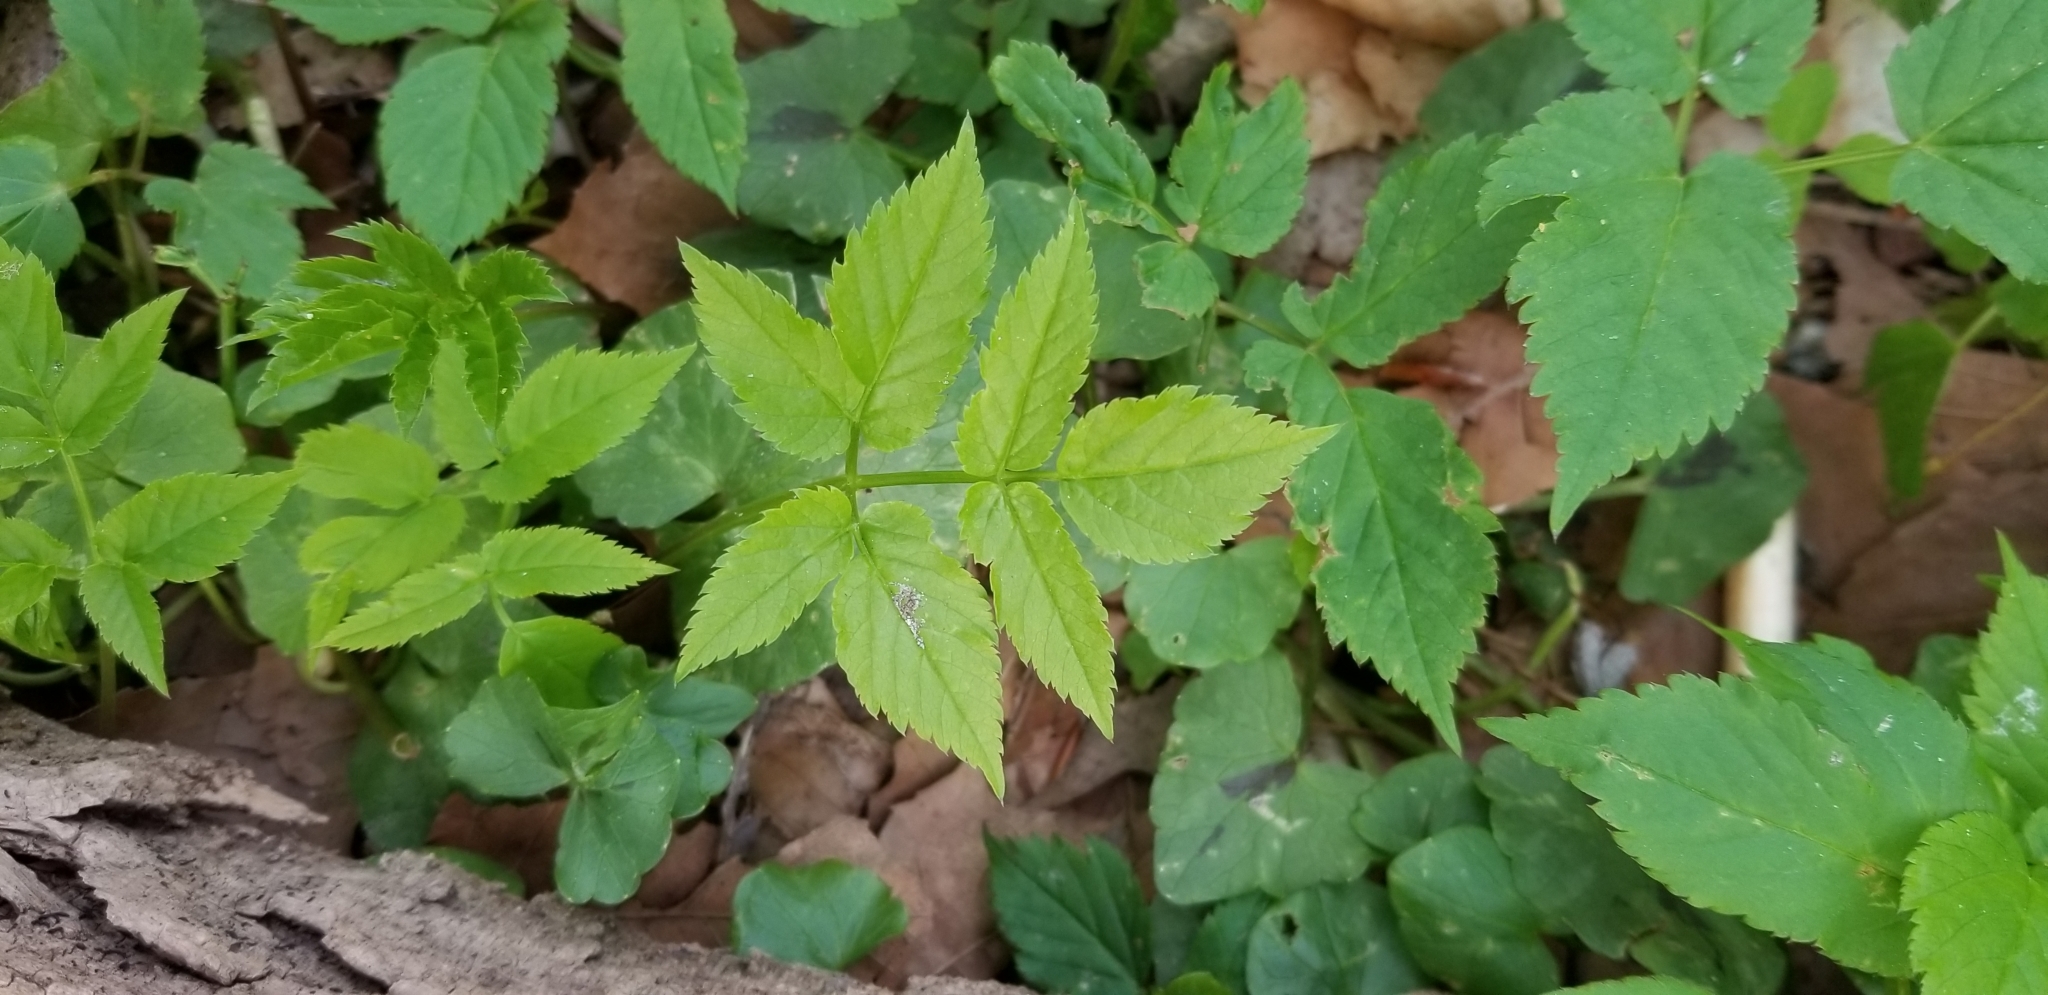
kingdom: Plantae
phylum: Tracheophyta
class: Magnoliopsida
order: Apiales
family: Apiaceae
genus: Aegopodium
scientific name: Aegopodium podagraria
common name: Ground-elder
